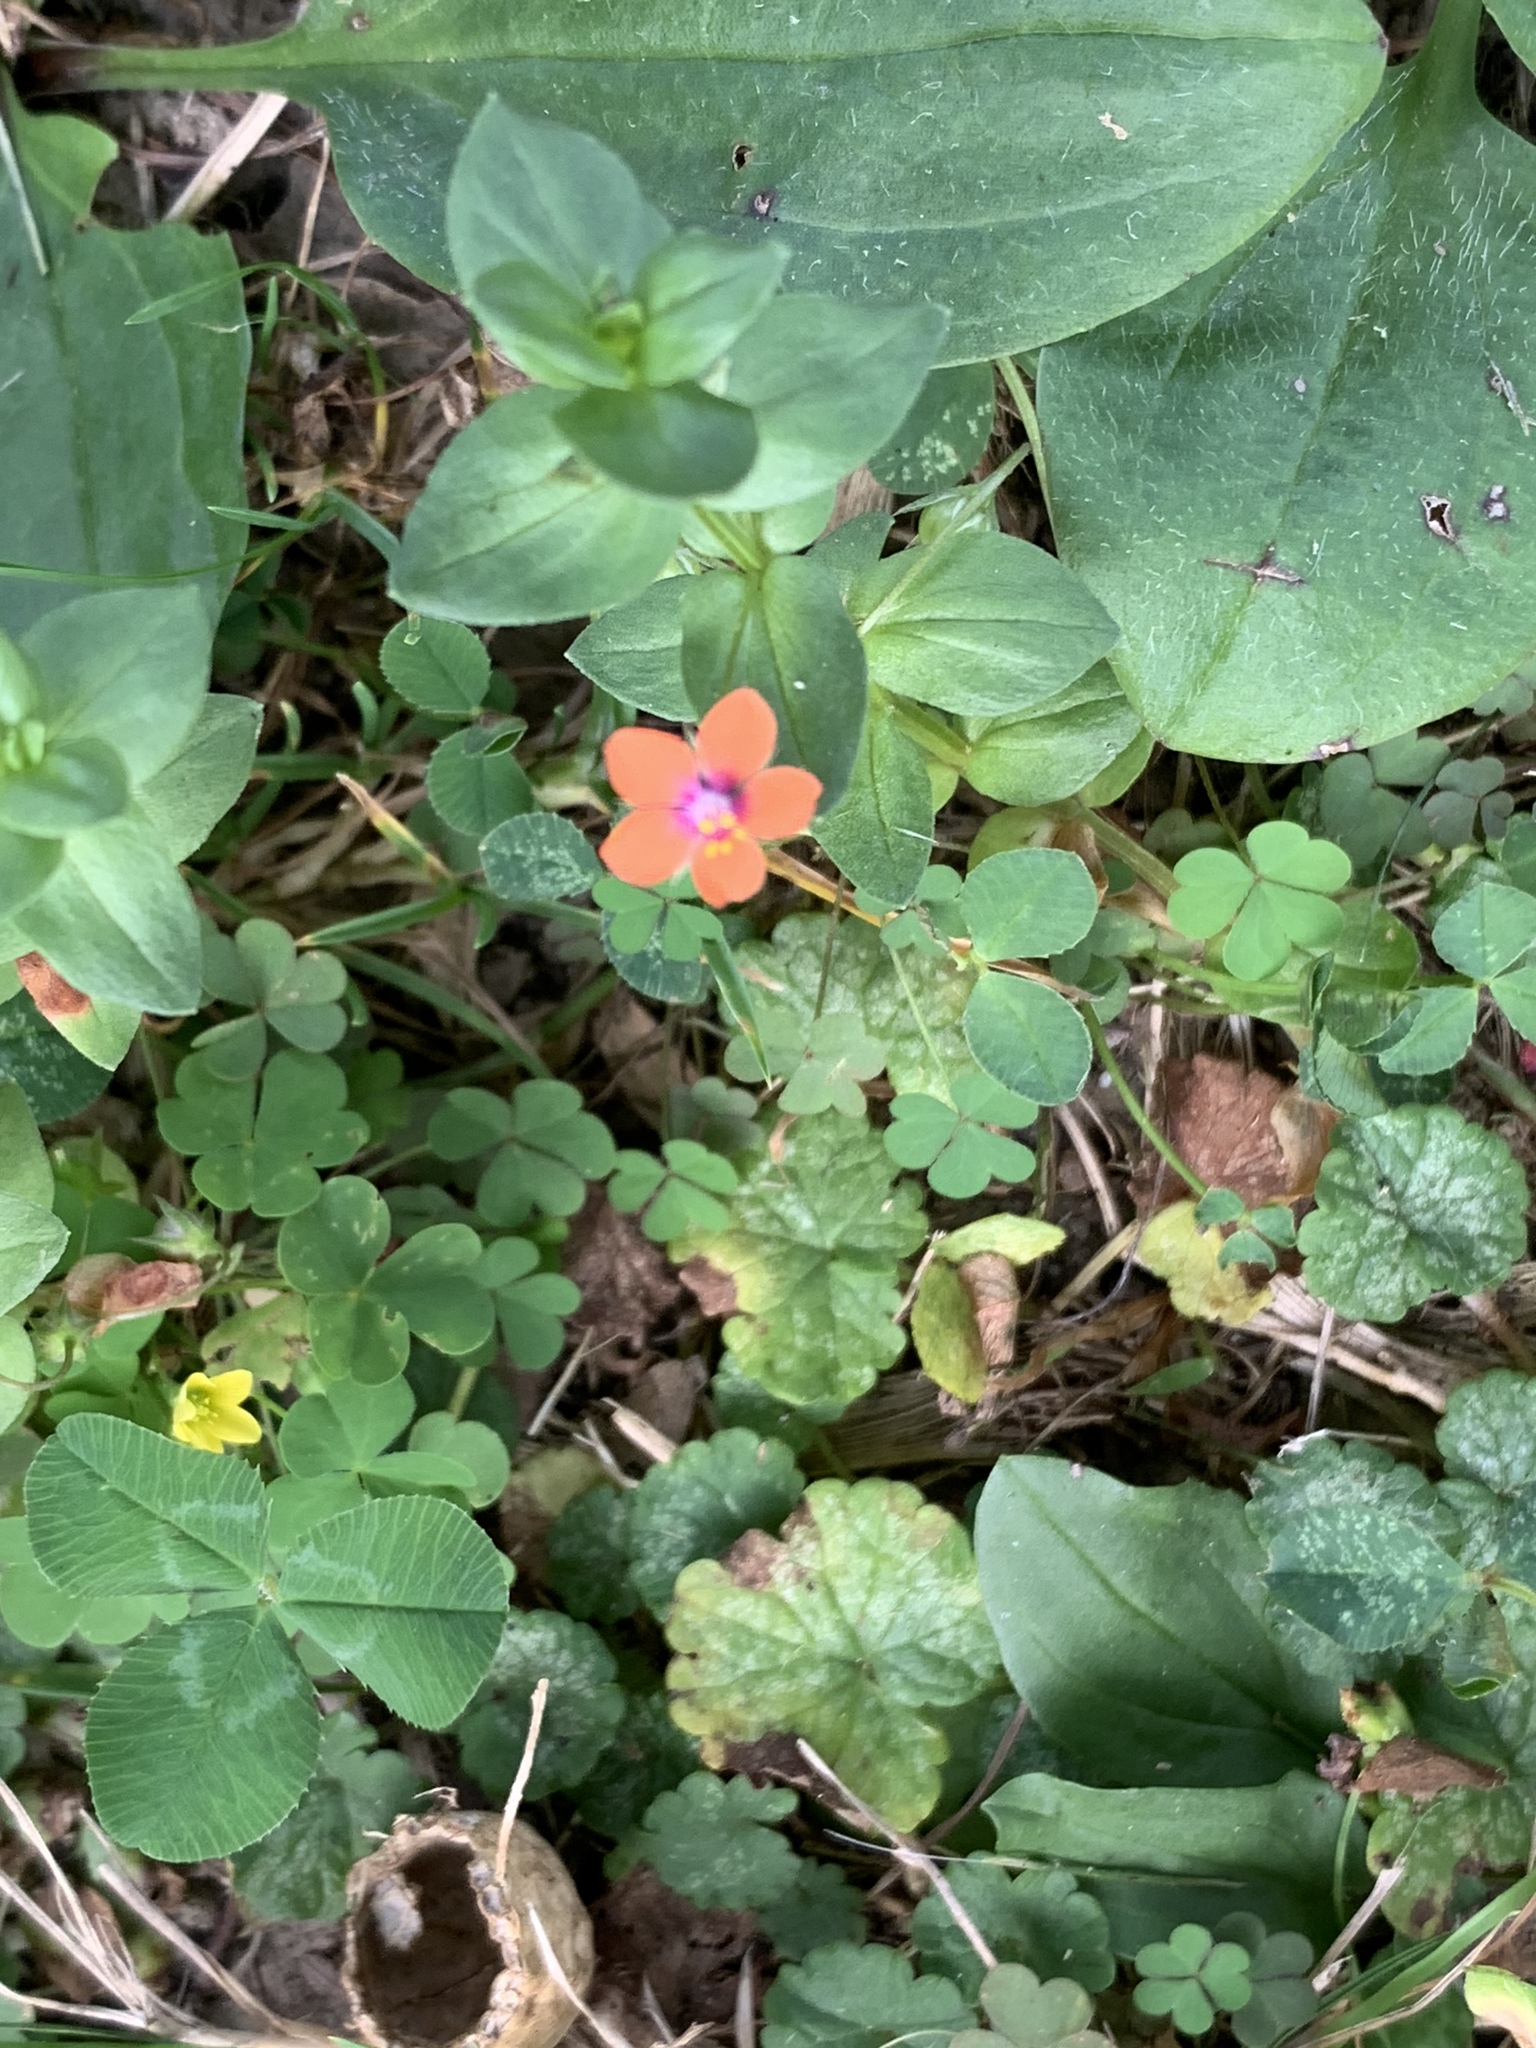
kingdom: Plantae
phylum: Tracheophyta
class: Magnoliopsida
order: Ericales
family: Primulaceae
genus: Lysimachia
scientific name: Lysimachia arvensis
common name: Scarlet pimpernel
